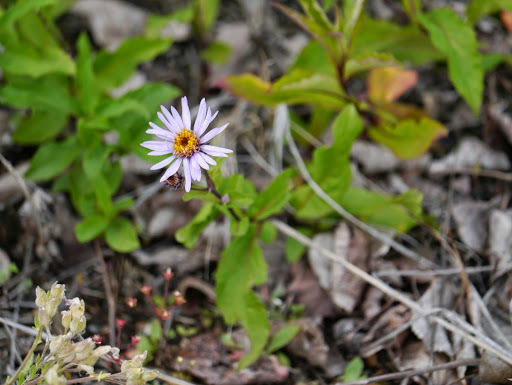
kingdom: Plantae
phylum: Tracheophyta
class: Magnoliopsida
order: Asterales
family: Asteraceae
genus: Eurybia
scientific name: Eurybia sibirica
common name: Arctic aster
